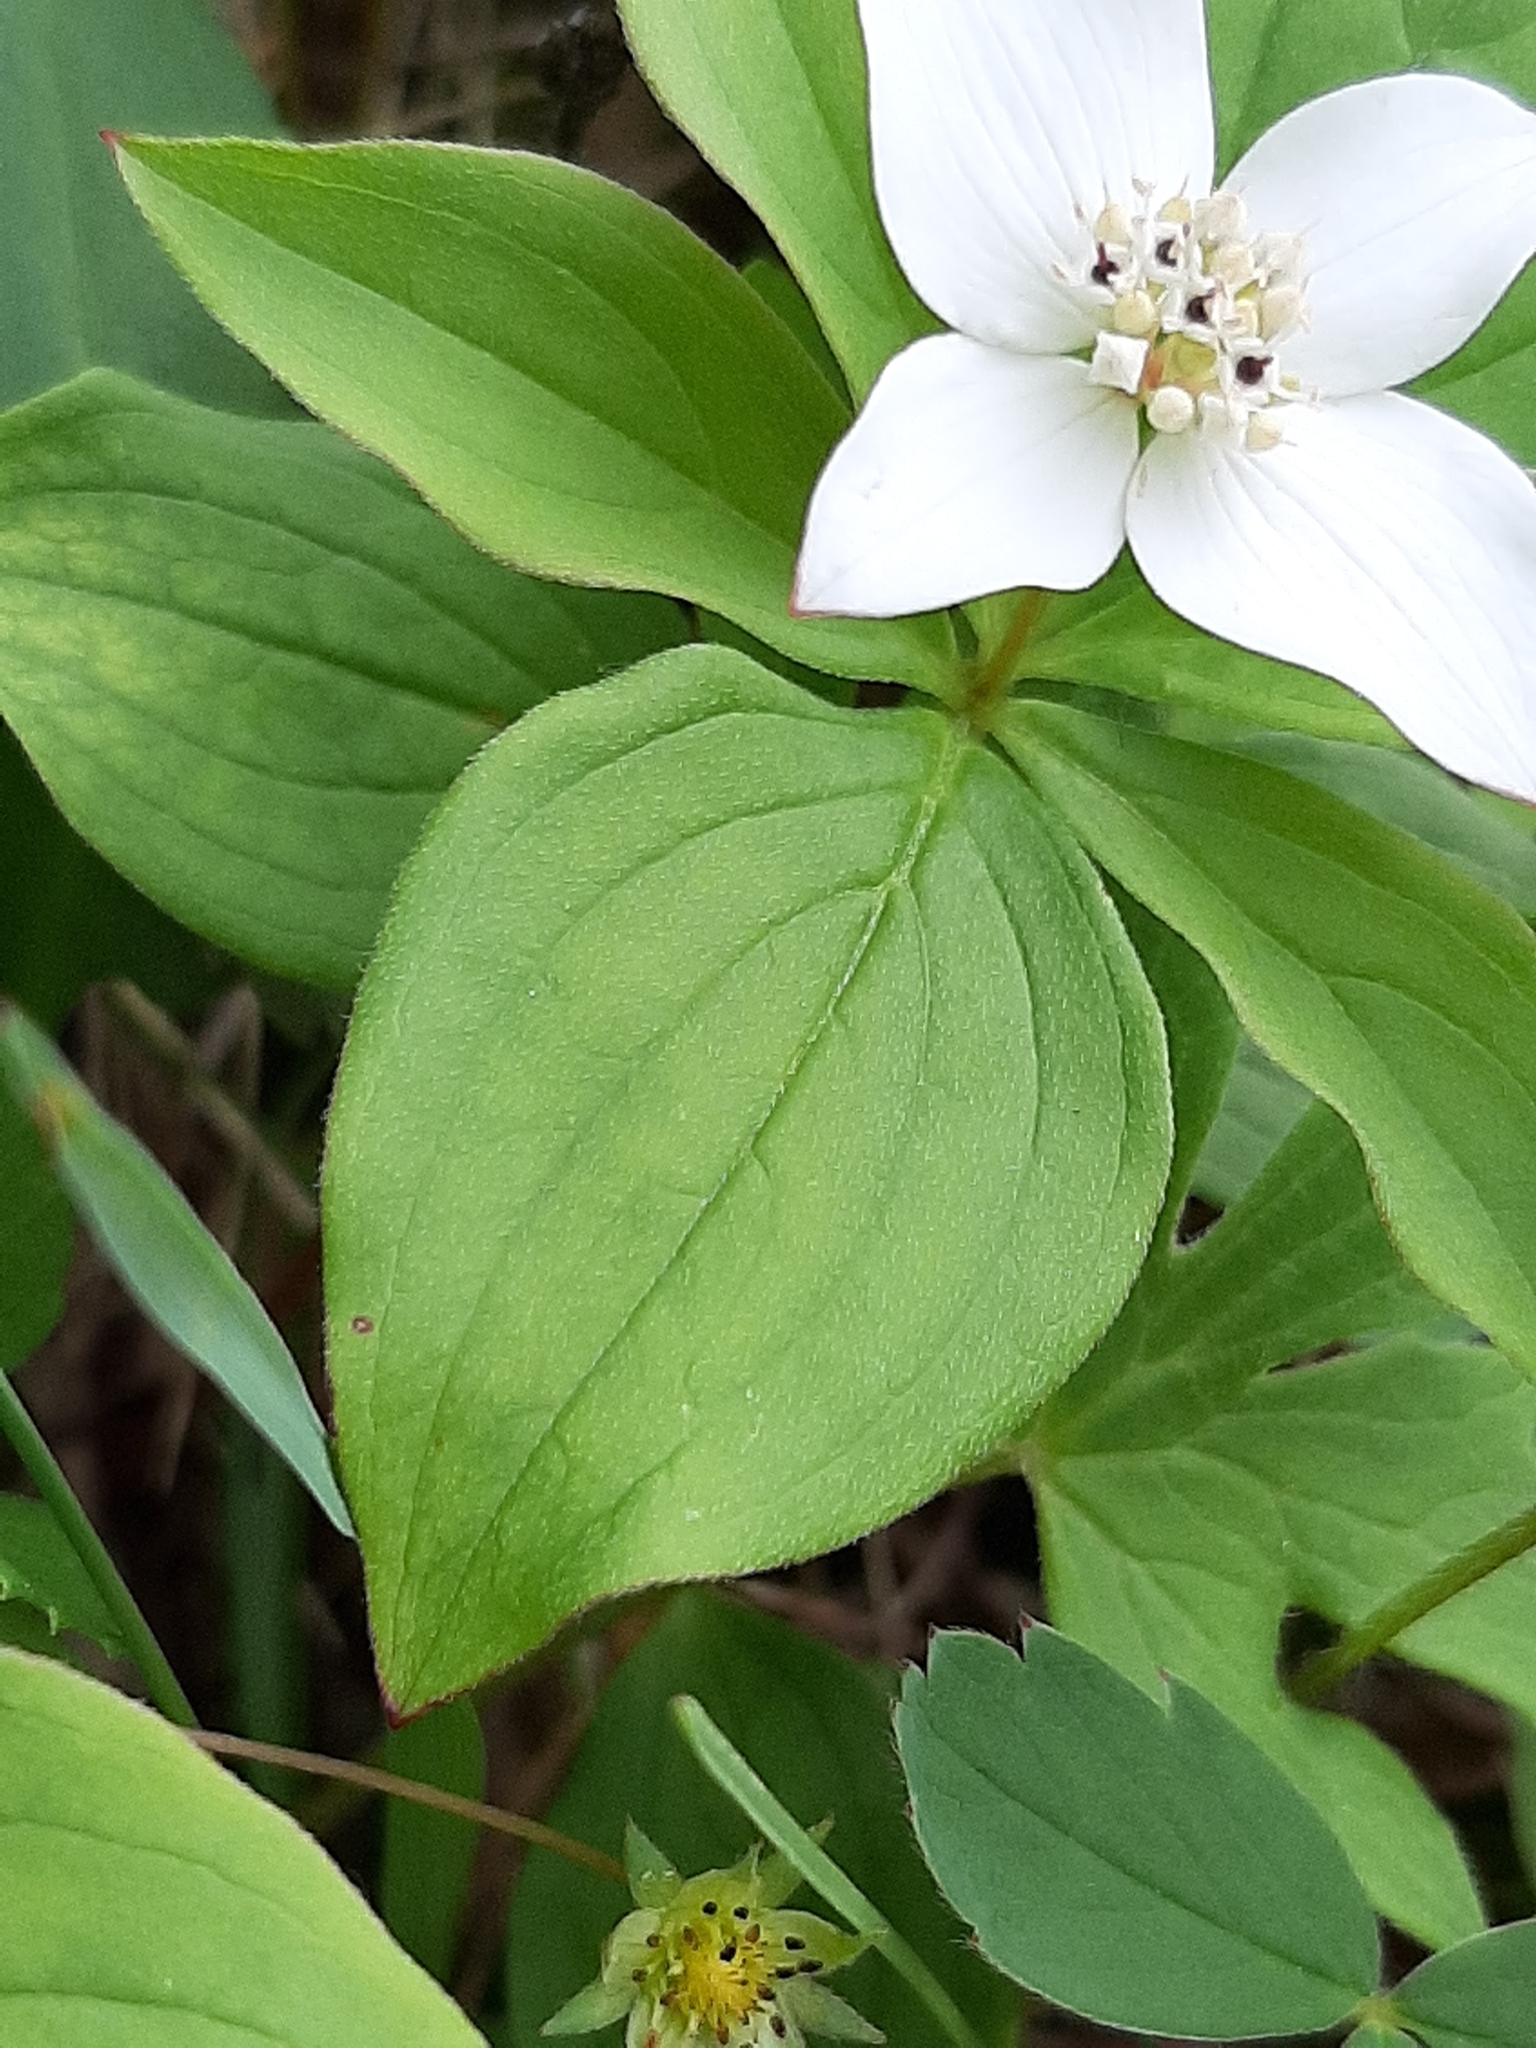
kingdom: Plantae
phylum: Tracheophyta
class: Magnoliopsida
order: Cornales
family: Cornaceae
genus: Cornus
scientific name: Cornus canadensis
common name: Creeping dogwood
